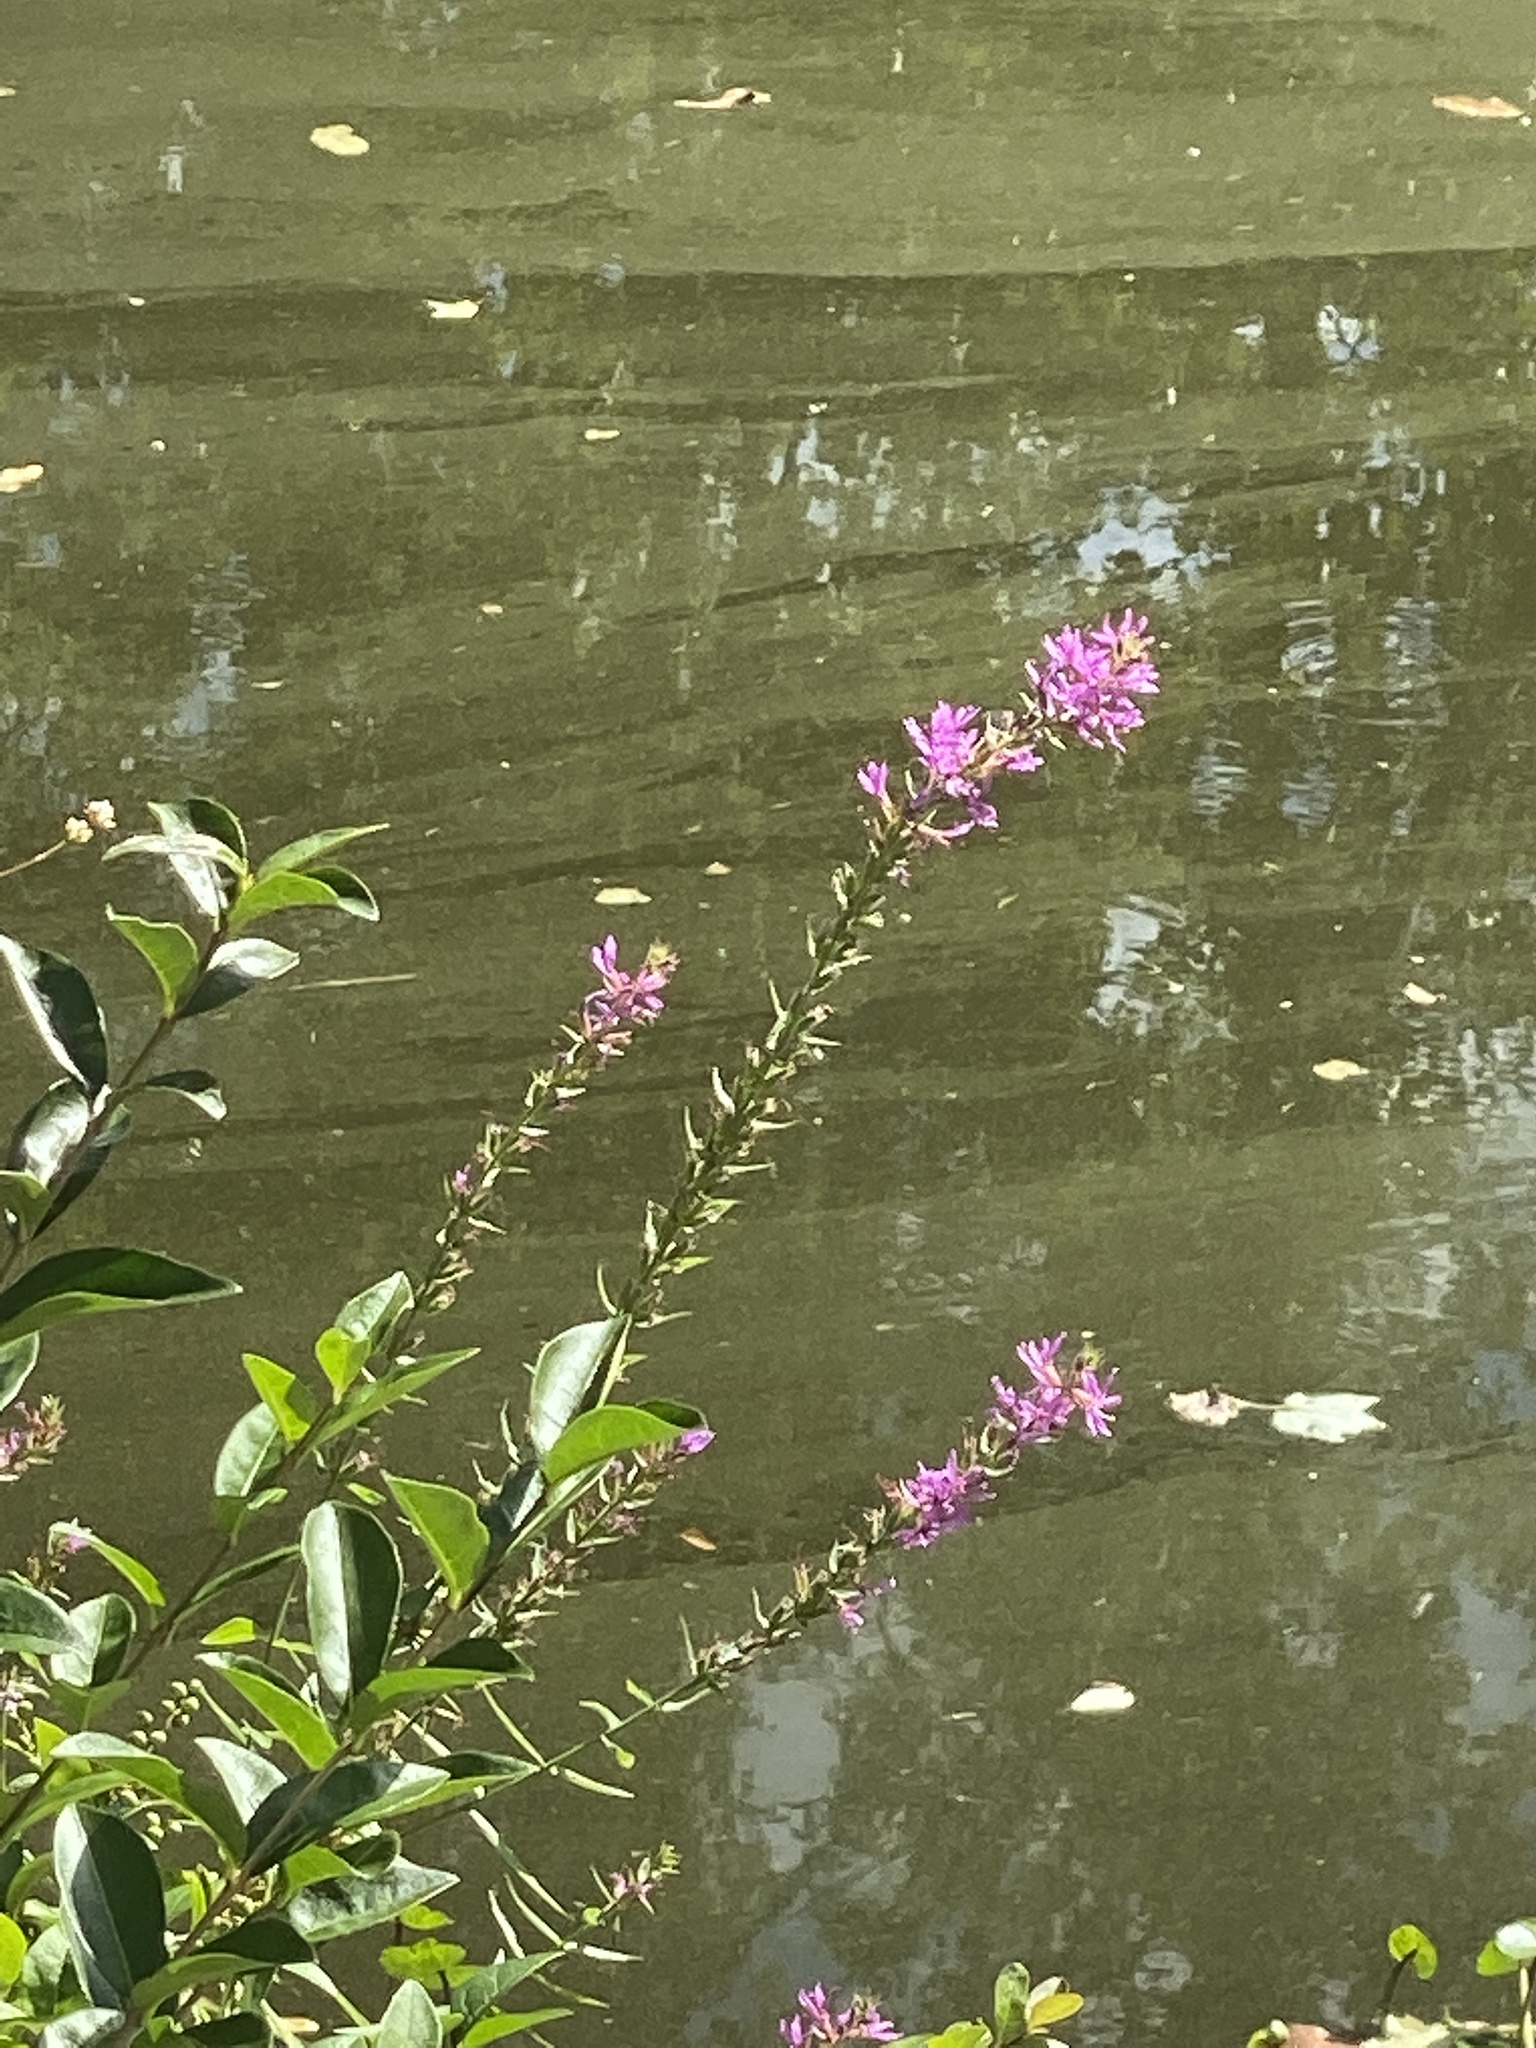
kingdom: Plantae
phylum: Tracheophyta
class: Magnoliopsida
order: Myrtales
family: Lythraceae
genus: Lythrum
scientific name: Lythrum salicaria
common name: Purple loosestrife
